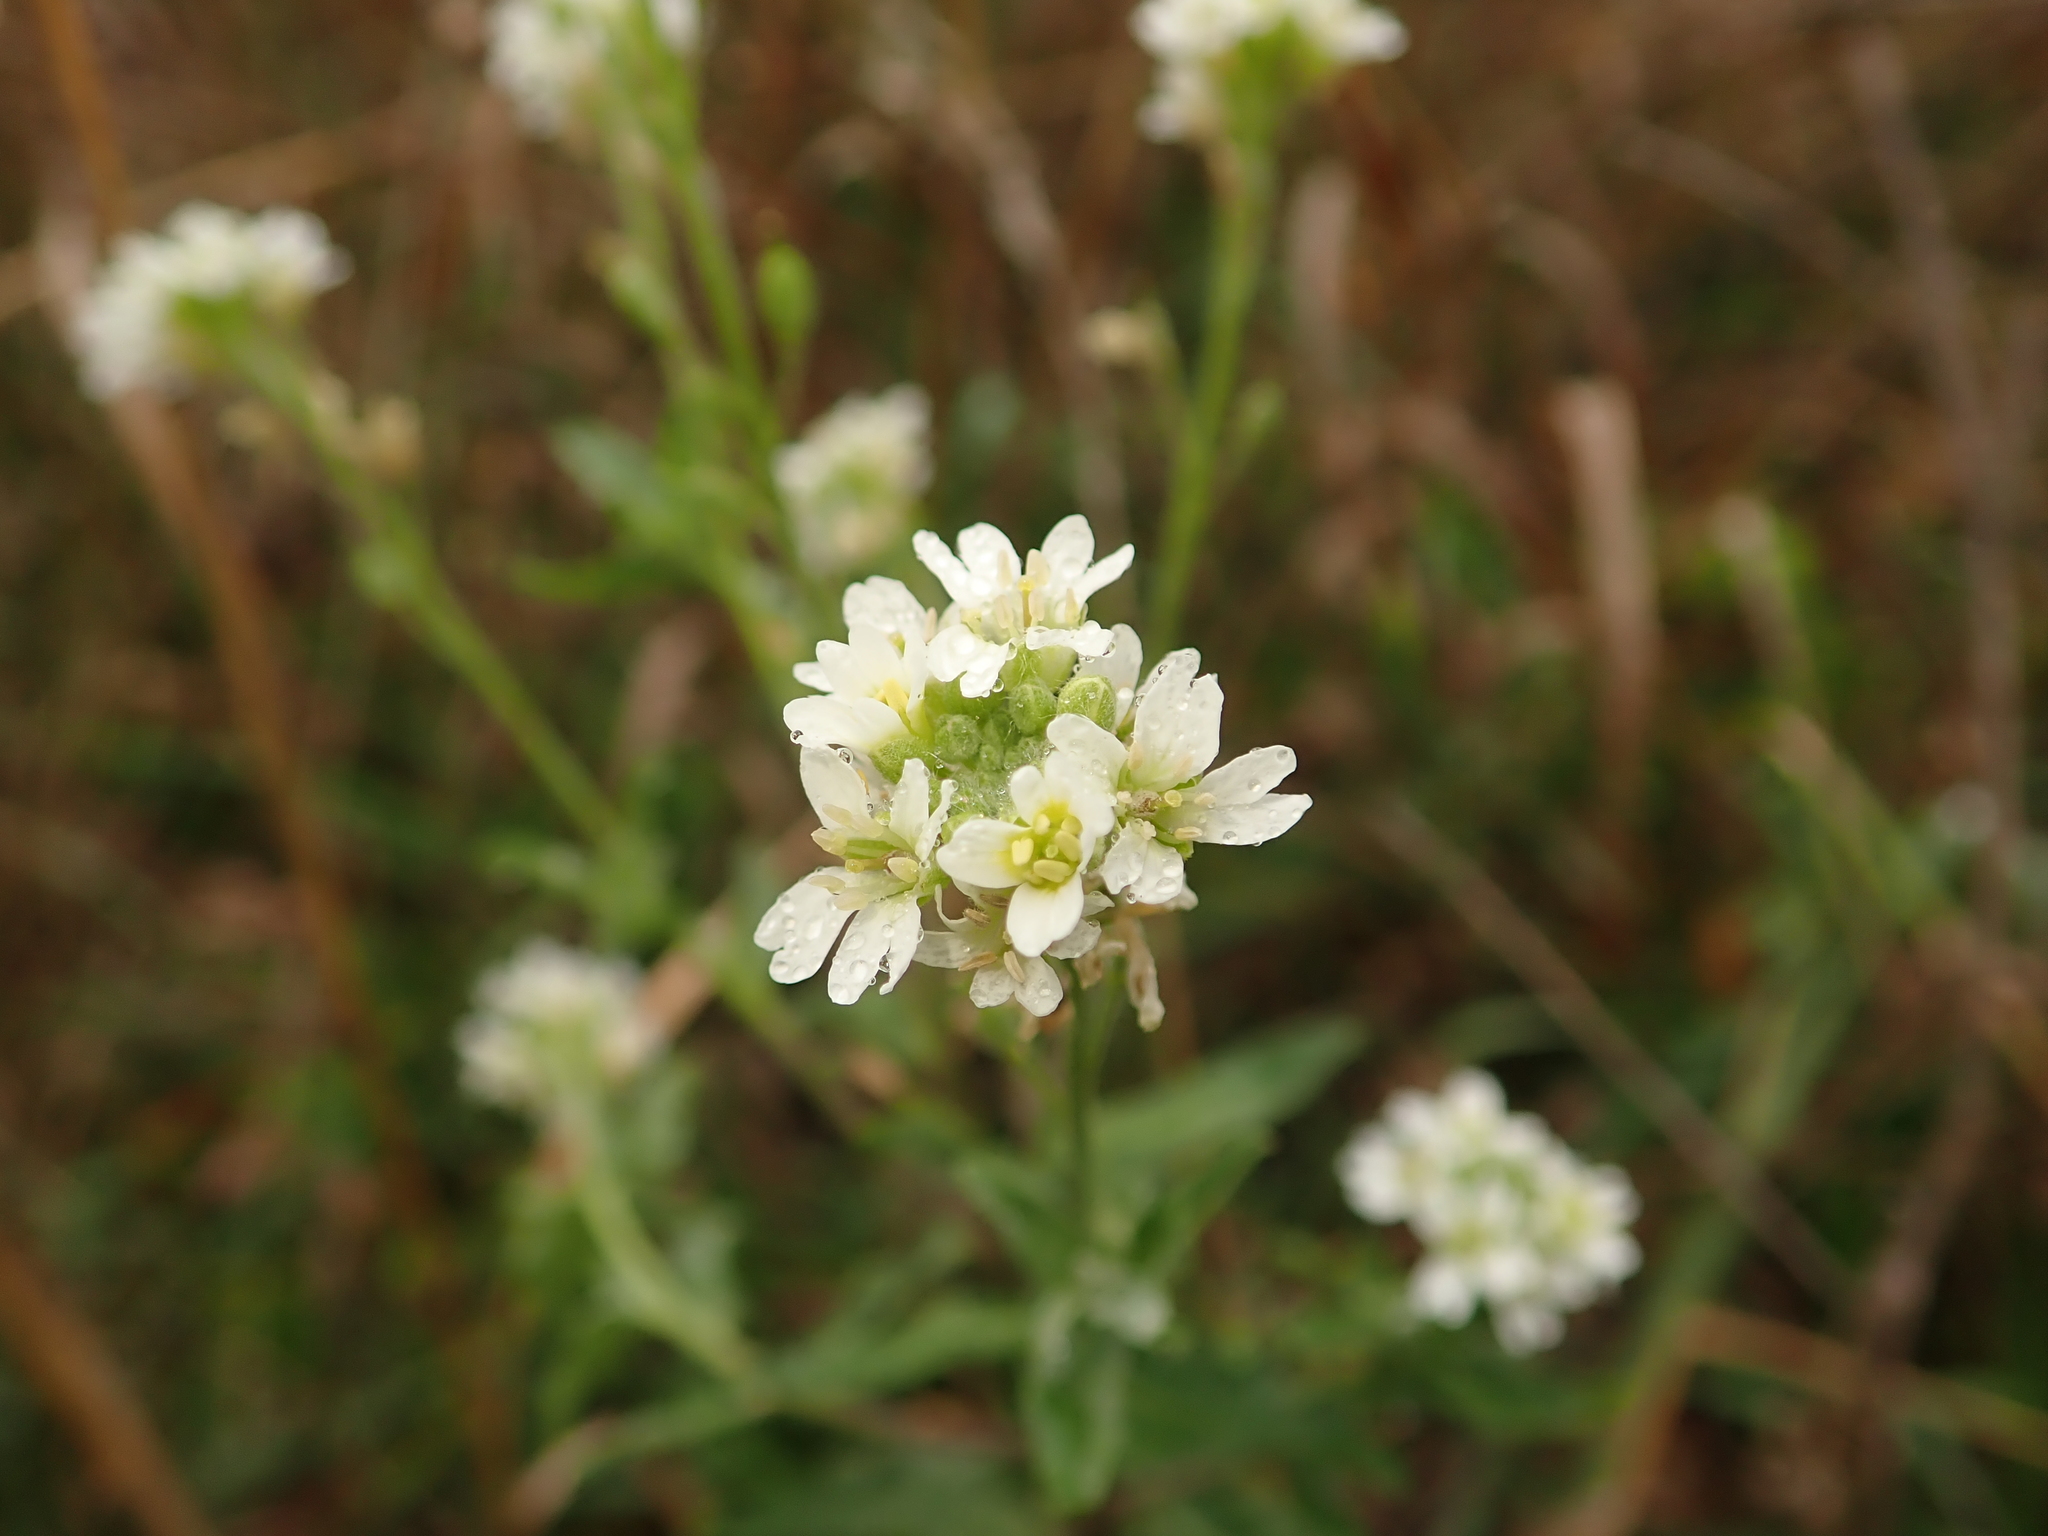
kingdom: Plantae
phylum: Tracheophyta
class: Magnoliopsida
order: Brassicales
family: Brassicaceae
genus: Berteroa
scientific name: Berteroa incana
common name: Hoary alison
